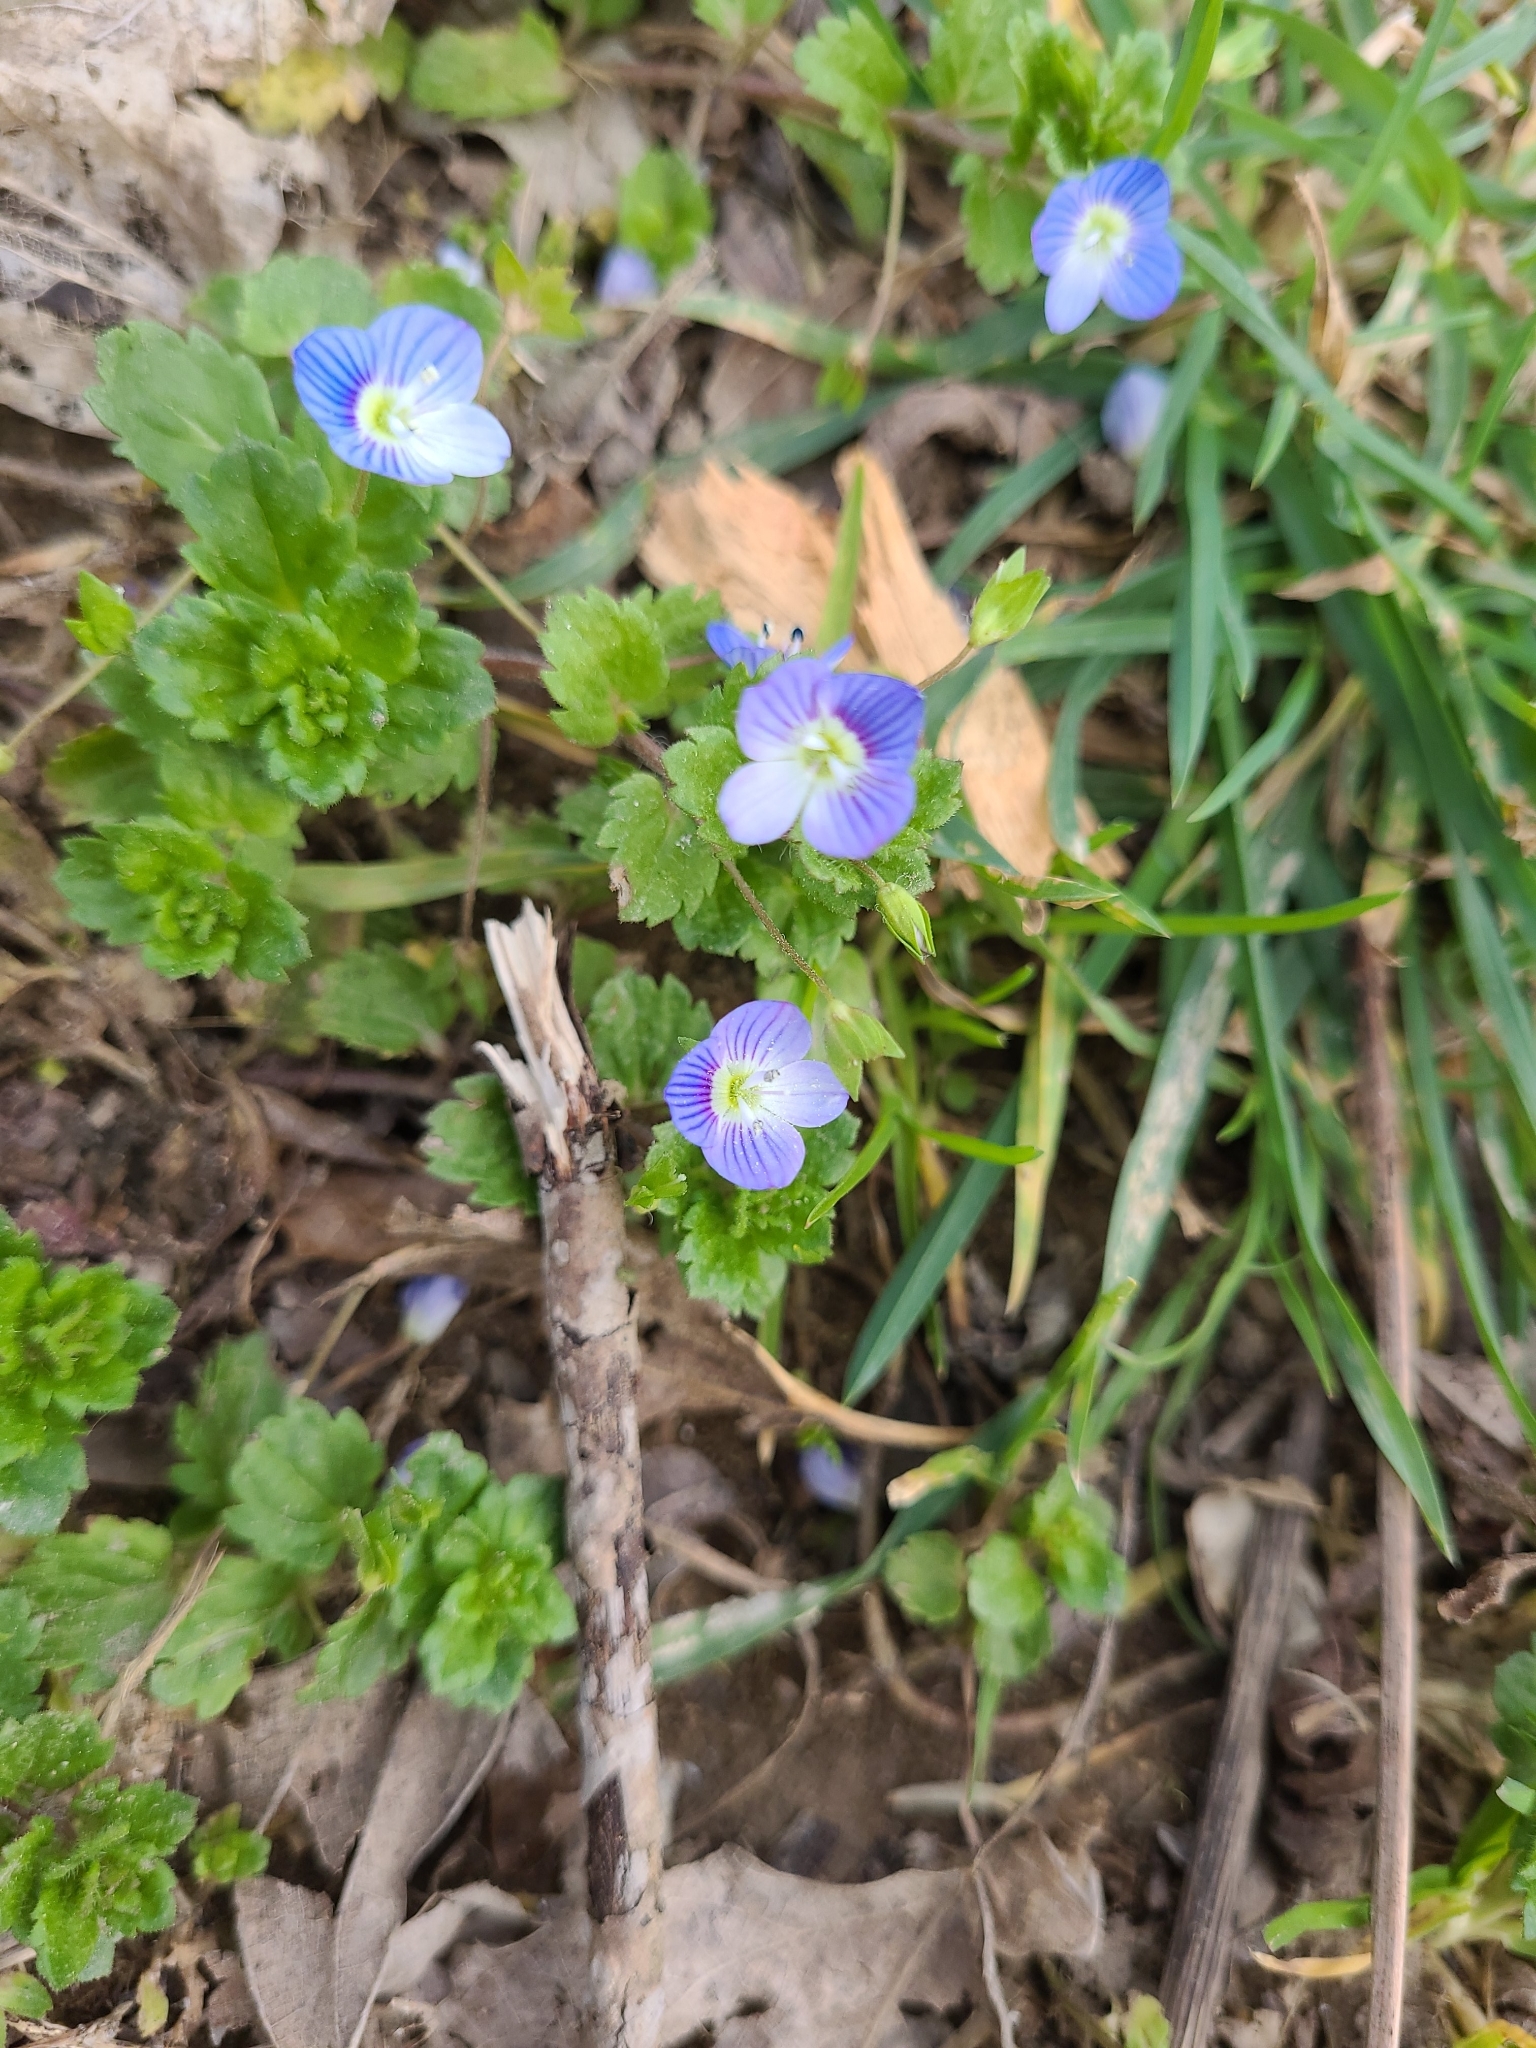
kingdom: Plantae
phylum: Tracheophyta
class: Magnoliopsida
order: Lamiales
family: Plantaginaceae
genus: Veronica
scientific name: Veronica persica
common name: Common field-speedwell
